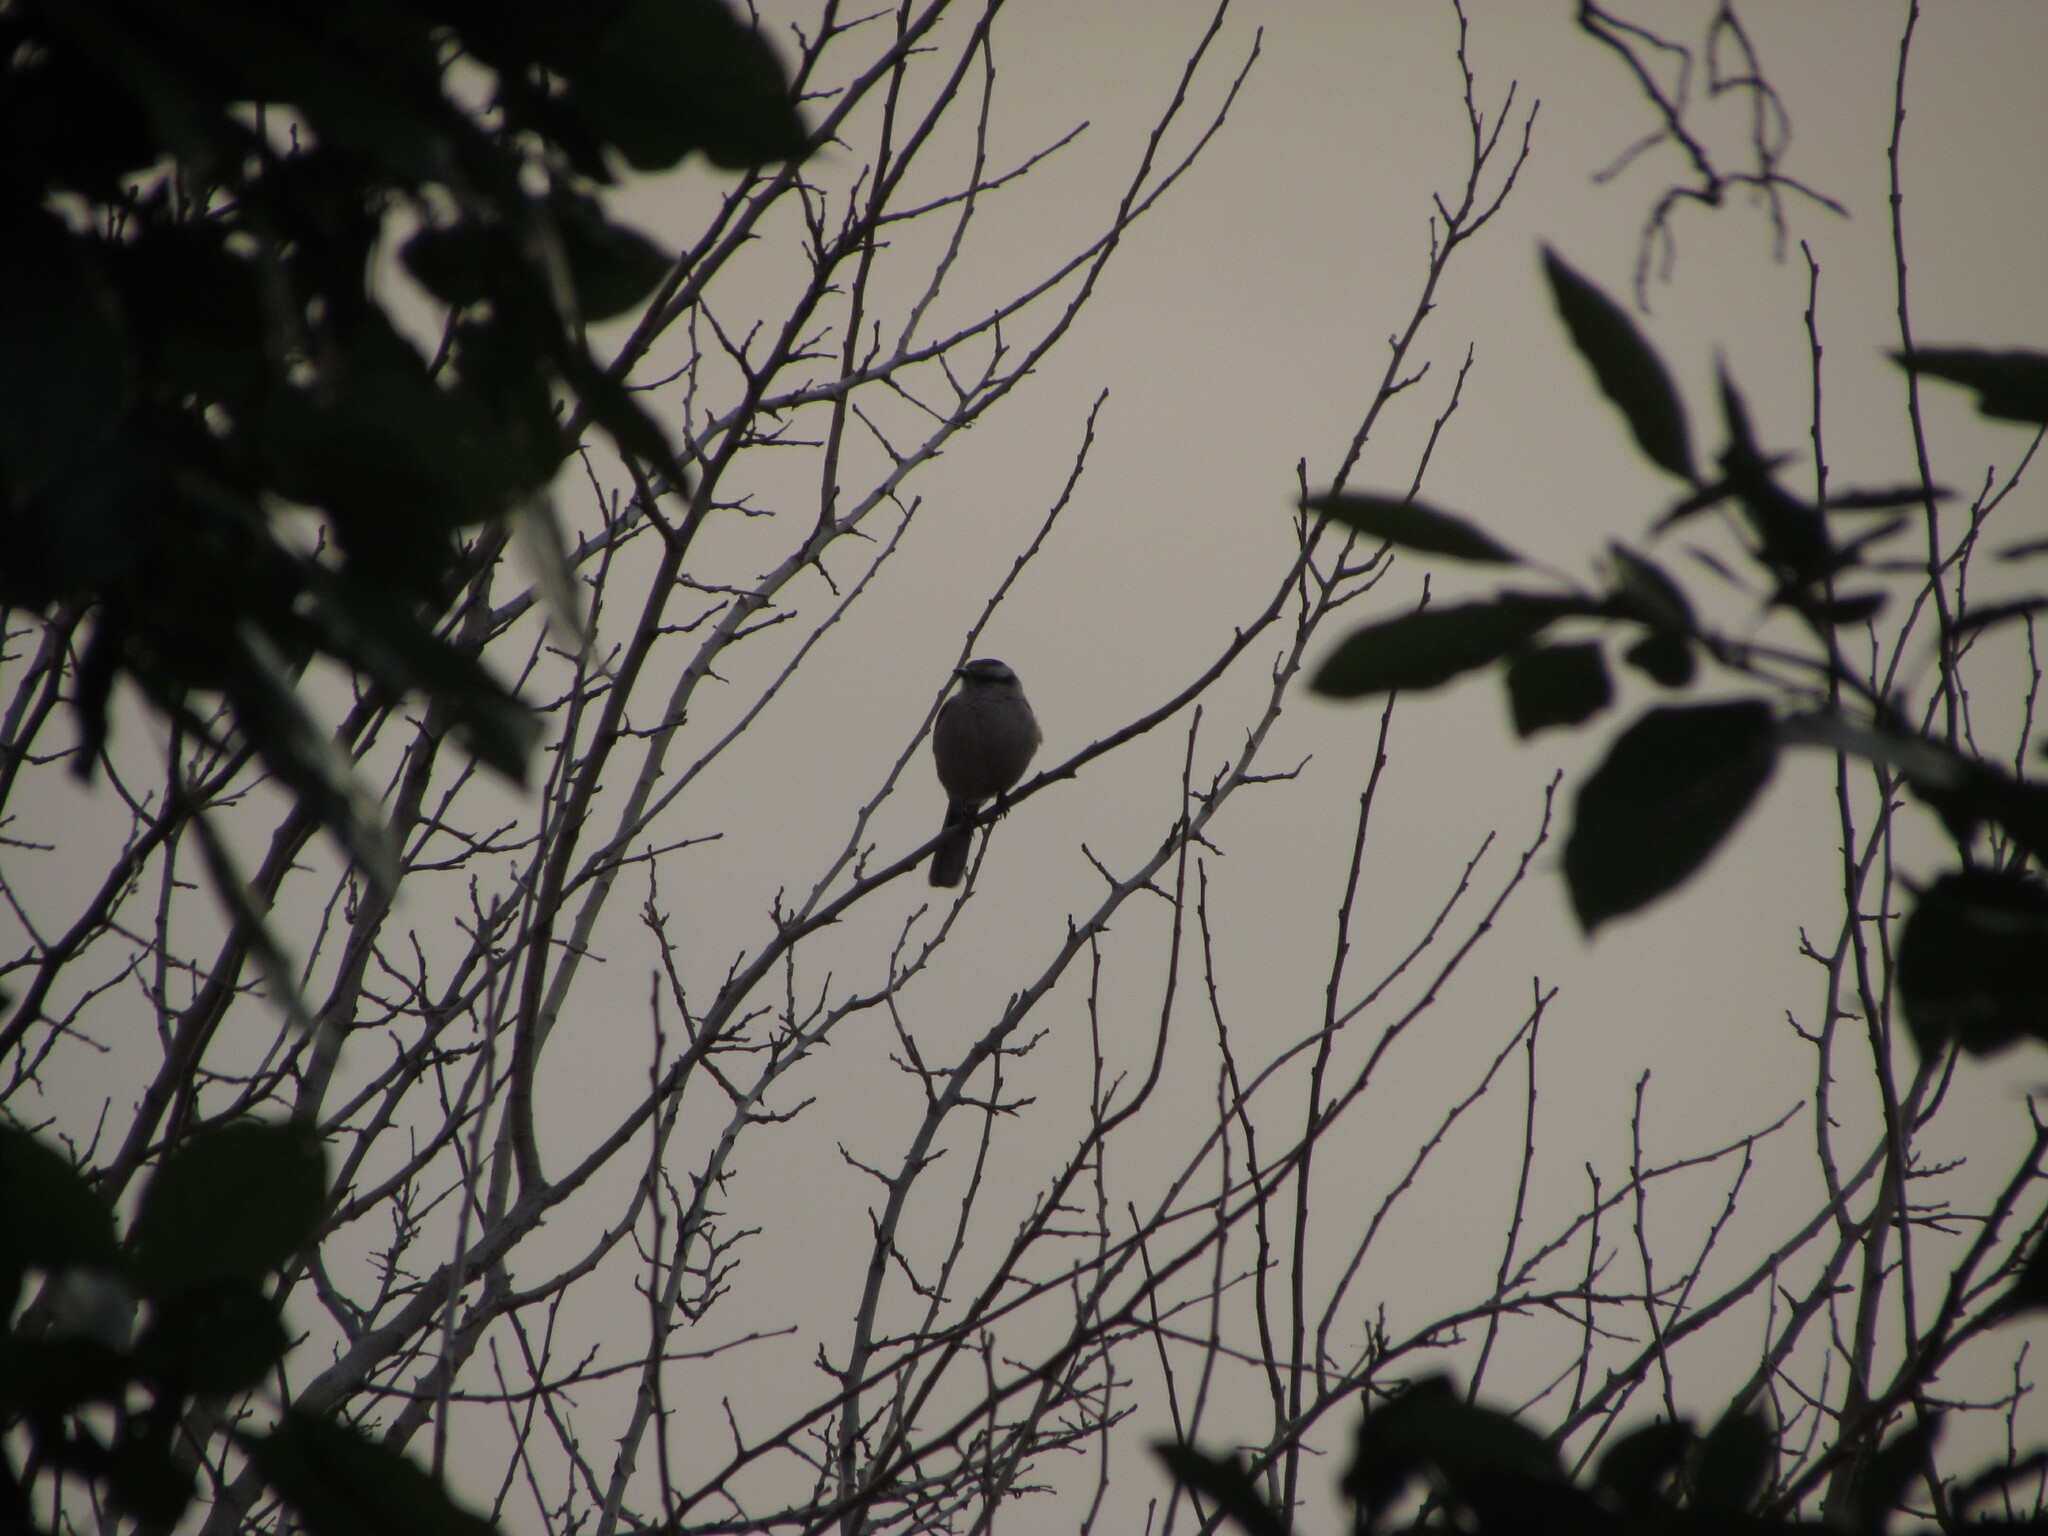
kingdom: Animalia
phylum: Chordata
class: Aves
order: Passeriformes
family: Mimidae
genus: Mimus
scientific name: Mimus saturninus
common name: Chalk-browed mockingbird
